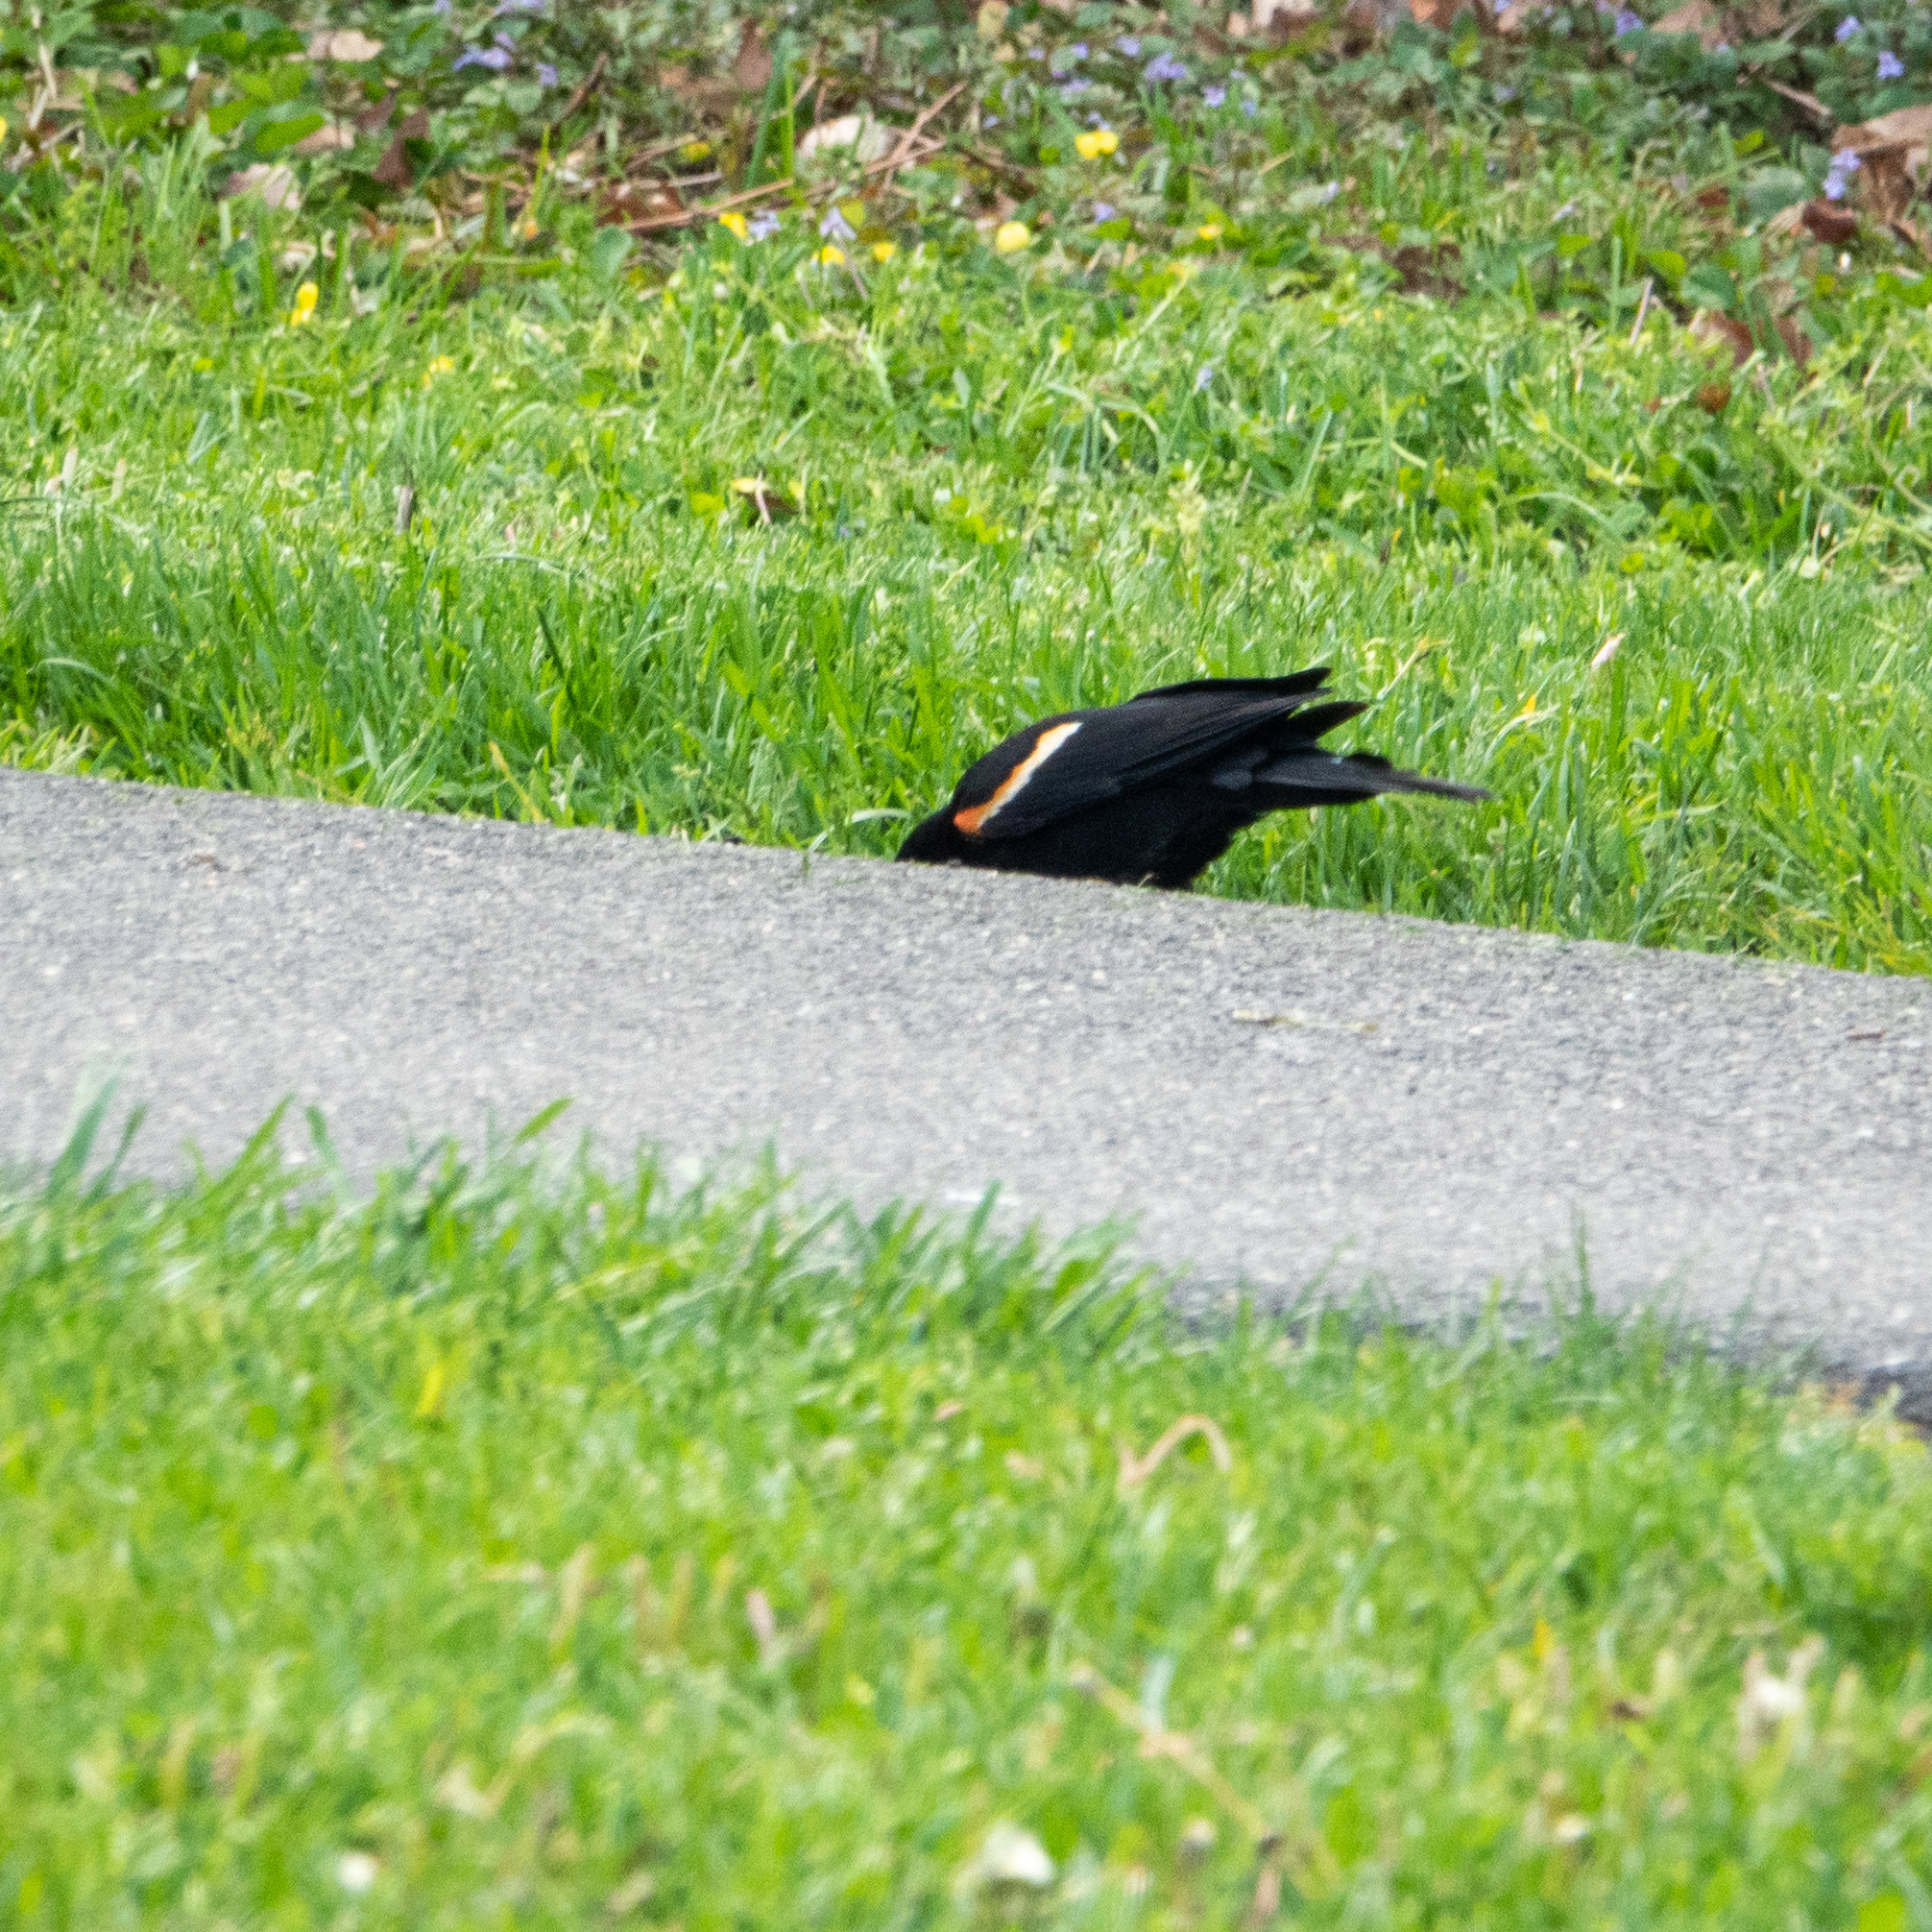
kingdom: Animalia
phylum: Chordata
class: Aves
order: Passeriformes
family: Icteridae
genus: Agelaius
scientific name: Agelaius phoeniceus
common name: Red-winged blackbird
